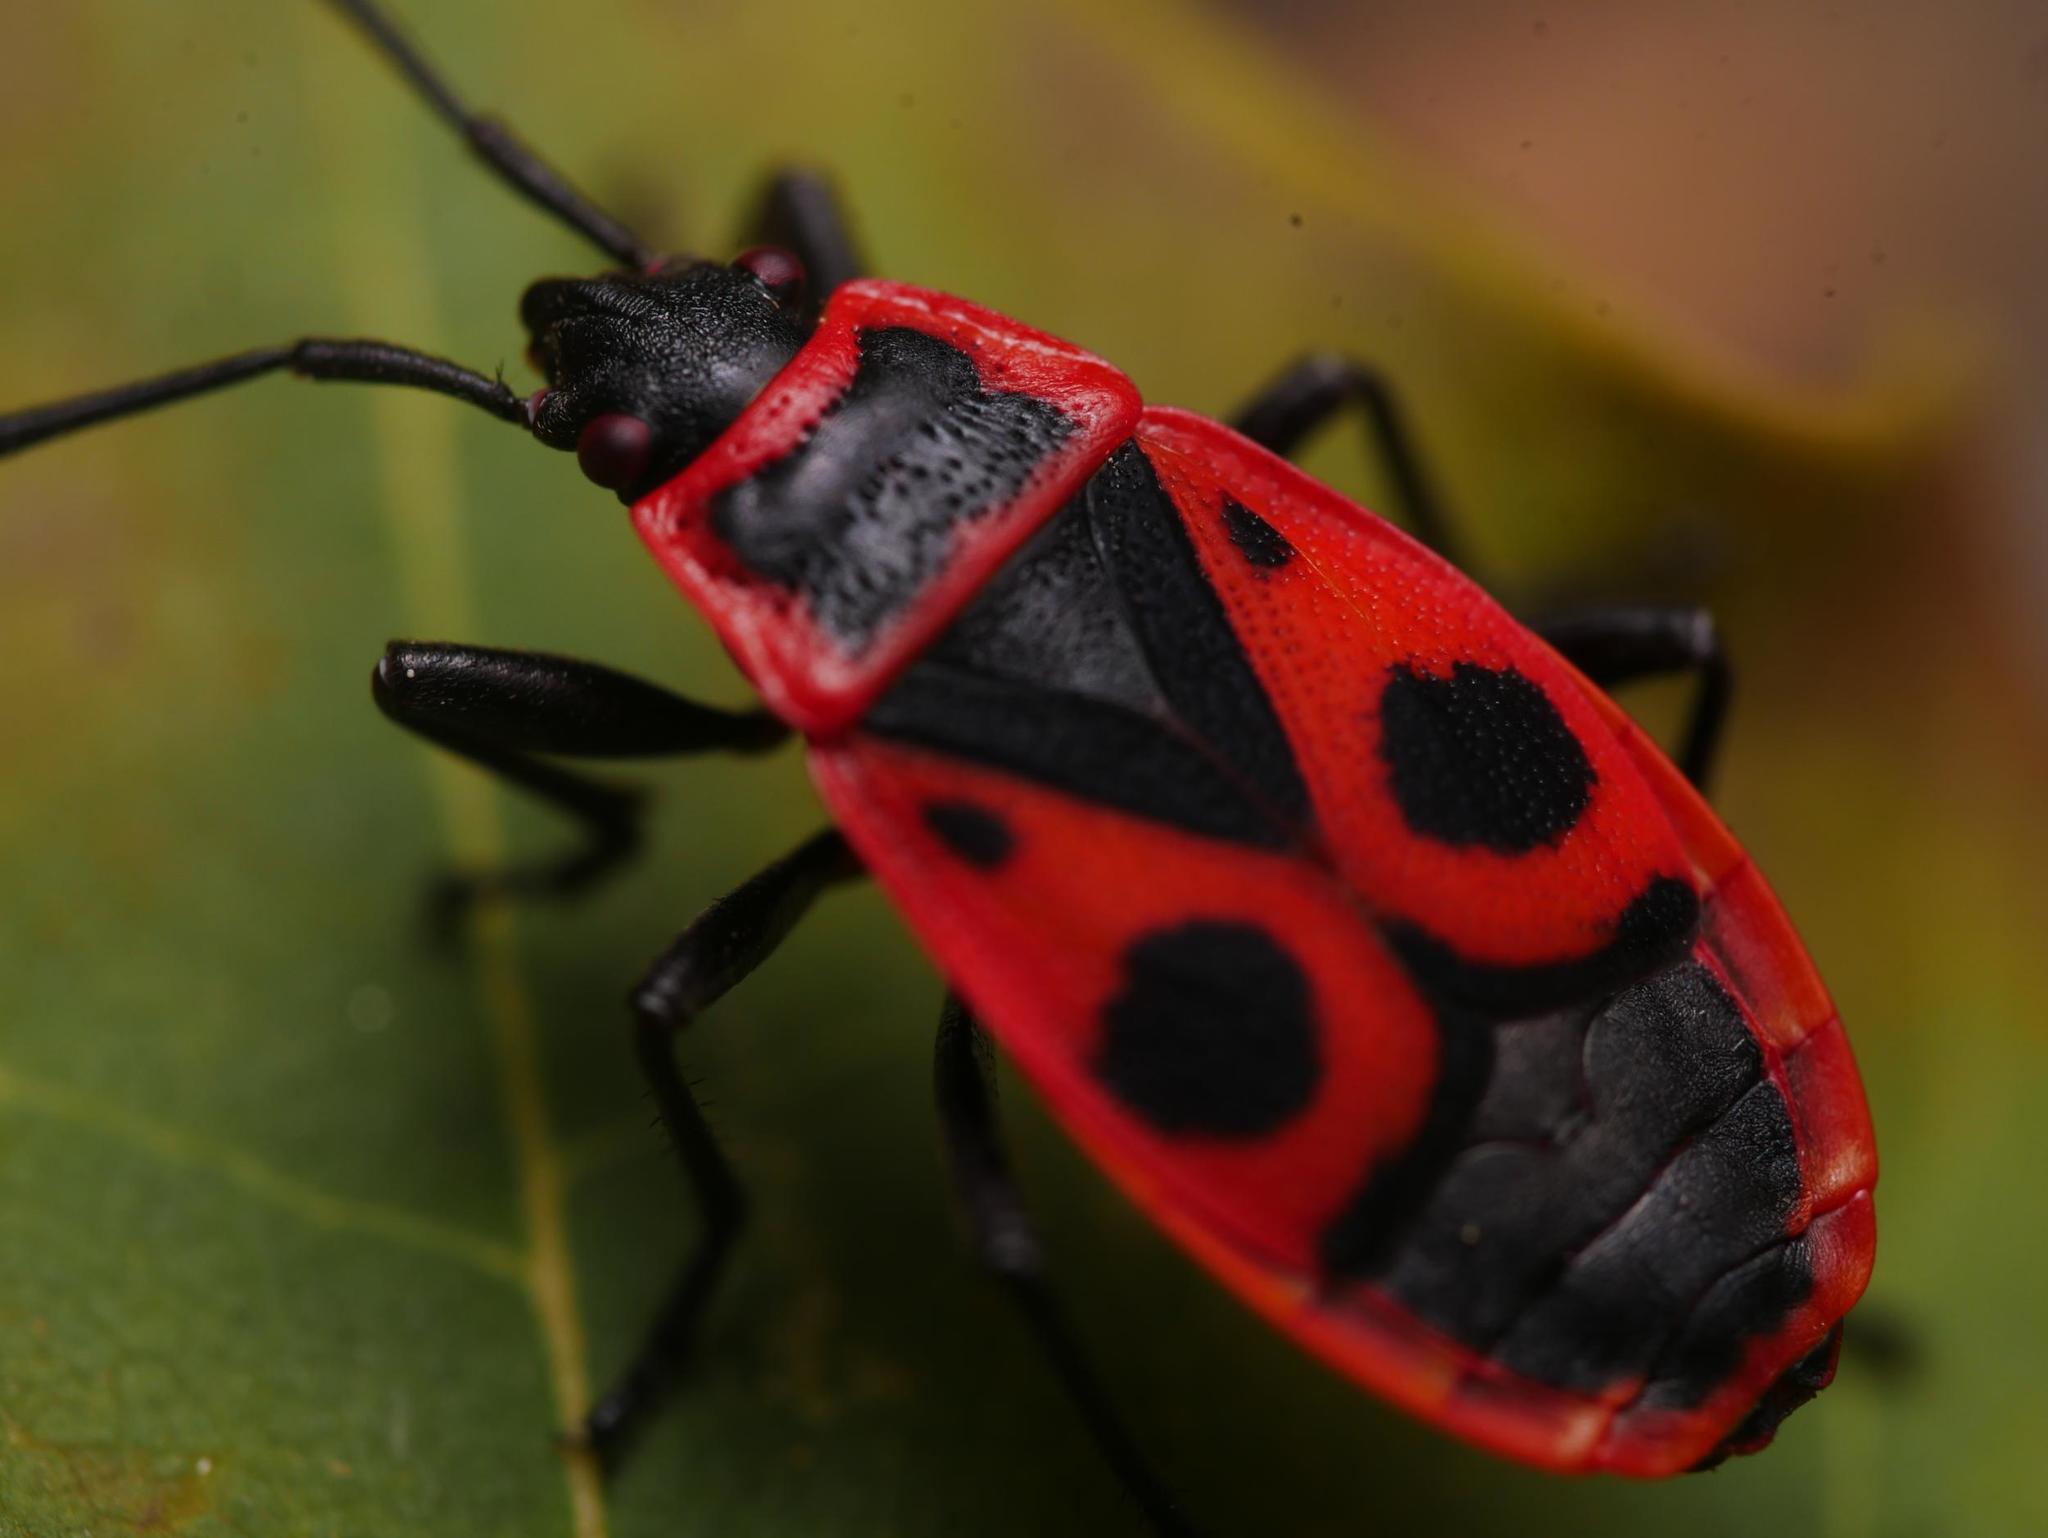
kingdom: Animalia
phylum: Arthropoda
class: Insecta
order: Hemiptera
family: Pyrrhocoridae
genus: Pyrrhocoris
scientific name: Pyrrhocoris apterus
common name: Firebug
